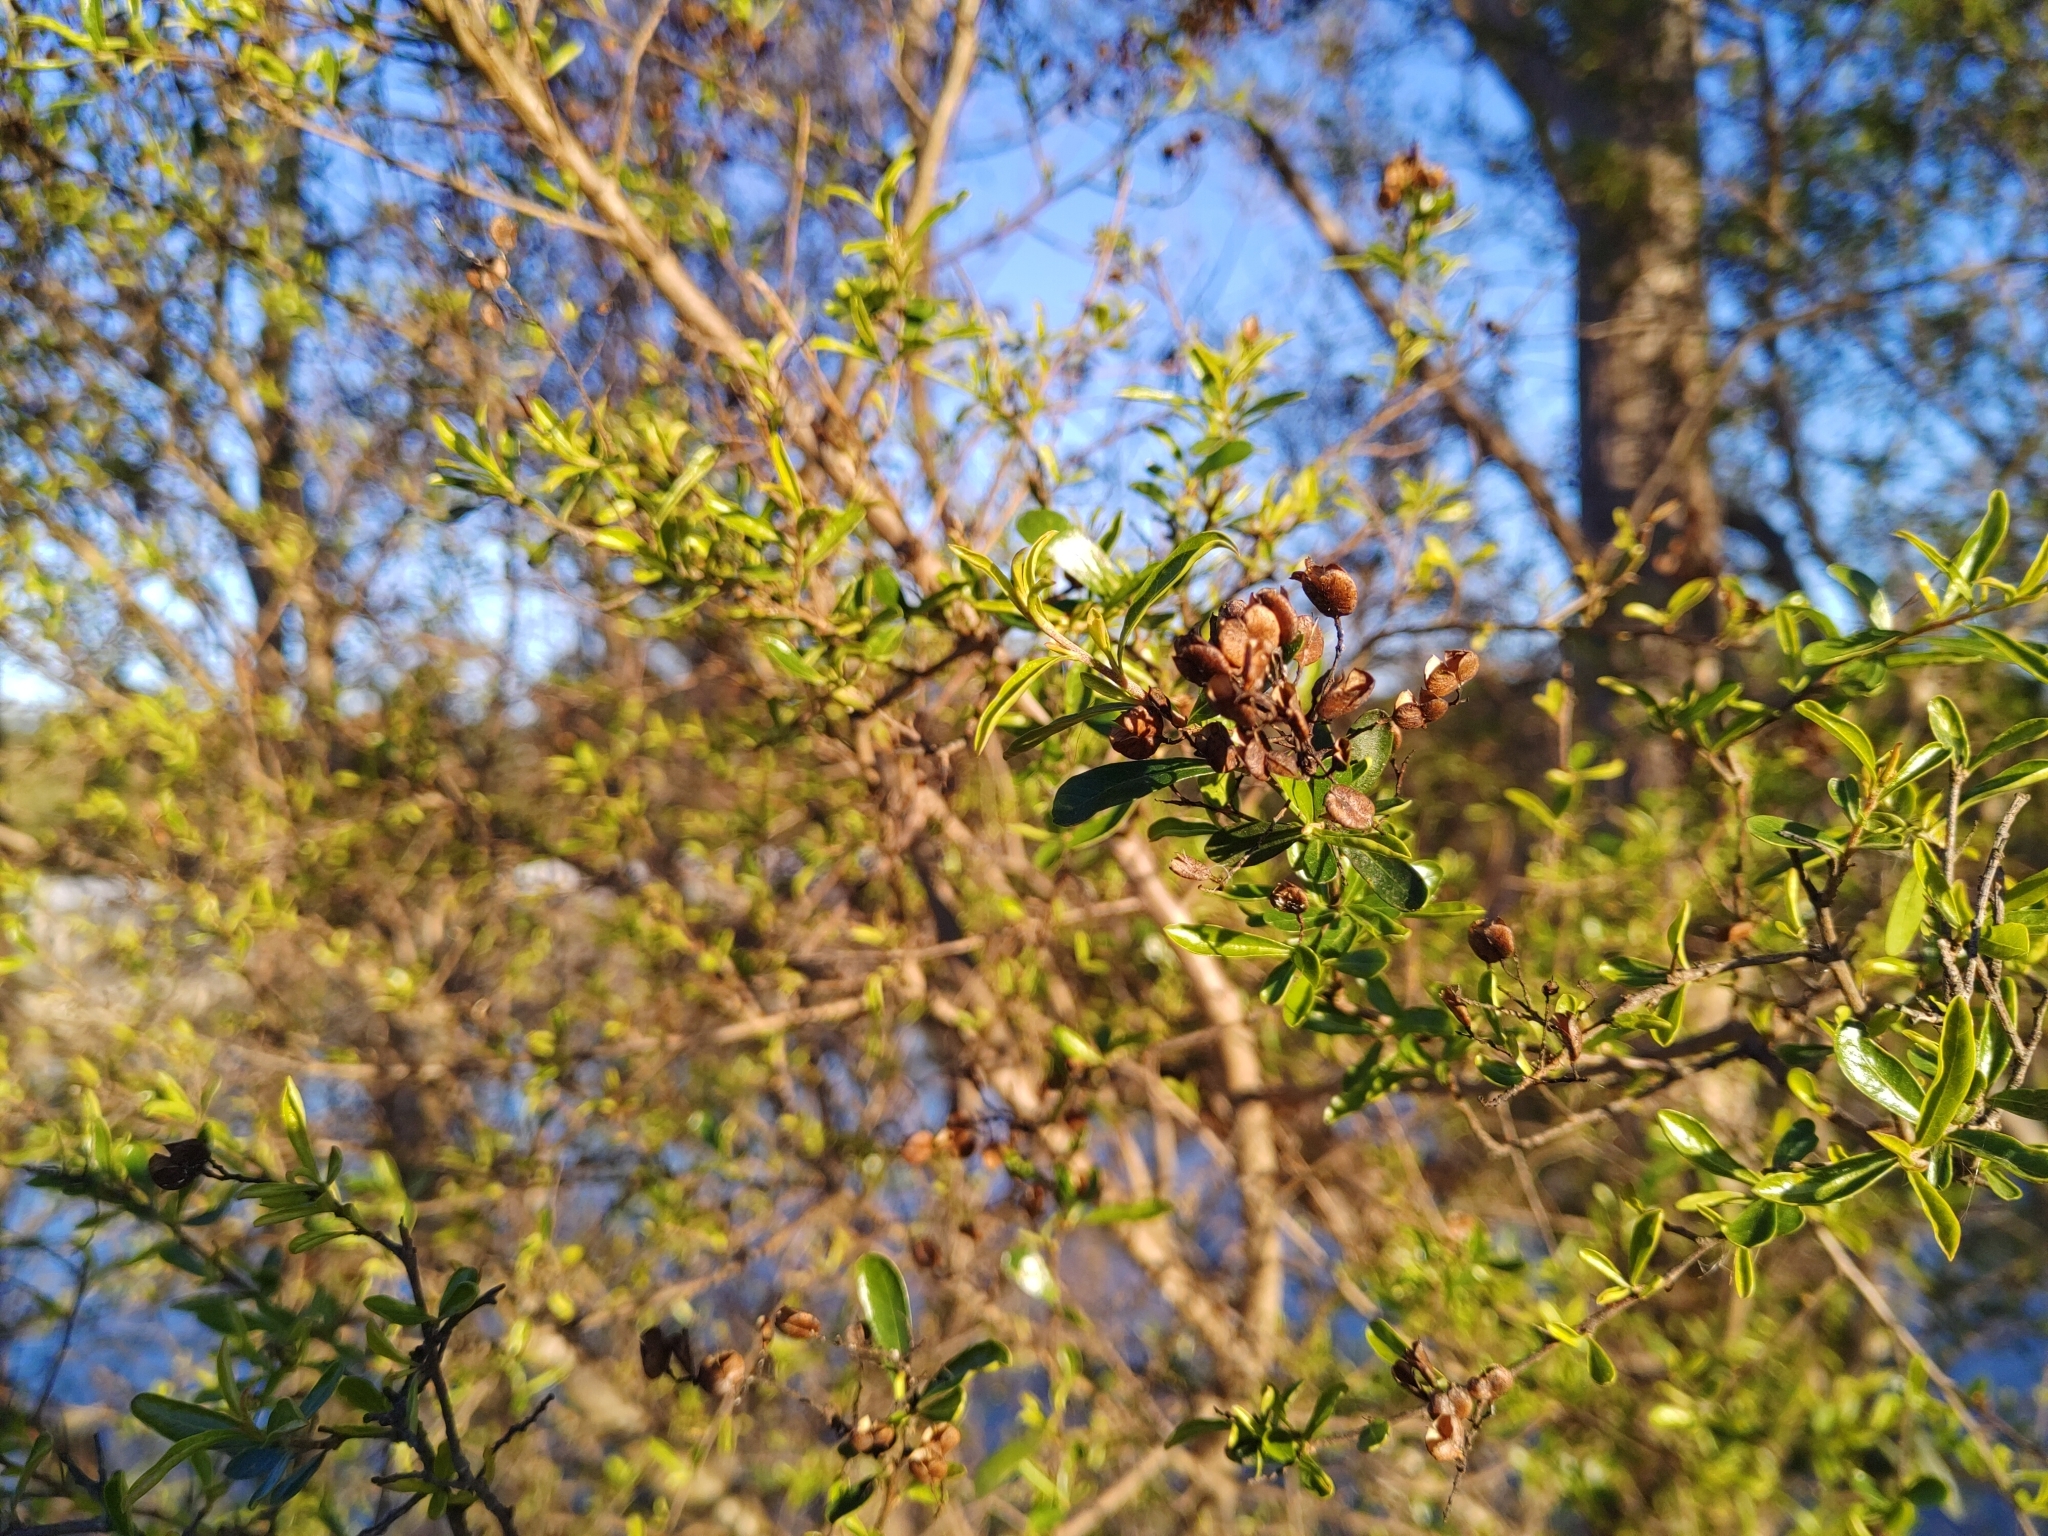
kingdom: Plantae
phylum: Tracheophyta
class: Magnoliopsida
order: Apiales
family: Pittosporaceae
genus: Bursaria
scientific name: Bursaria spinosa
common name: Australian blackthorn
